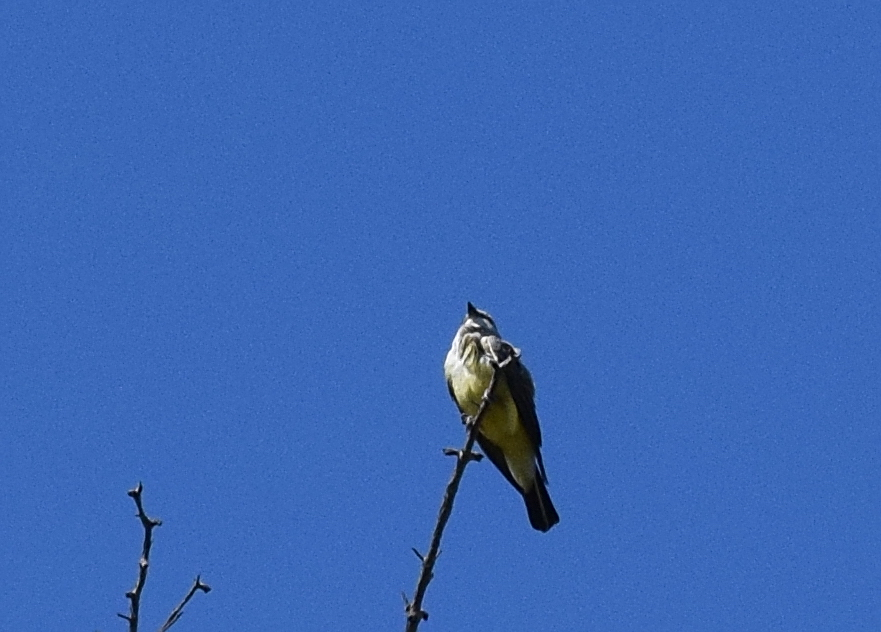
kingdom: Animalia
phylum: Chordata
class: Aves
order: Passeriformes
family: Tyrannidae
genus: Tyrannus
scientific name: Tyrannus vociferans
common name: Cassin's kingbird
